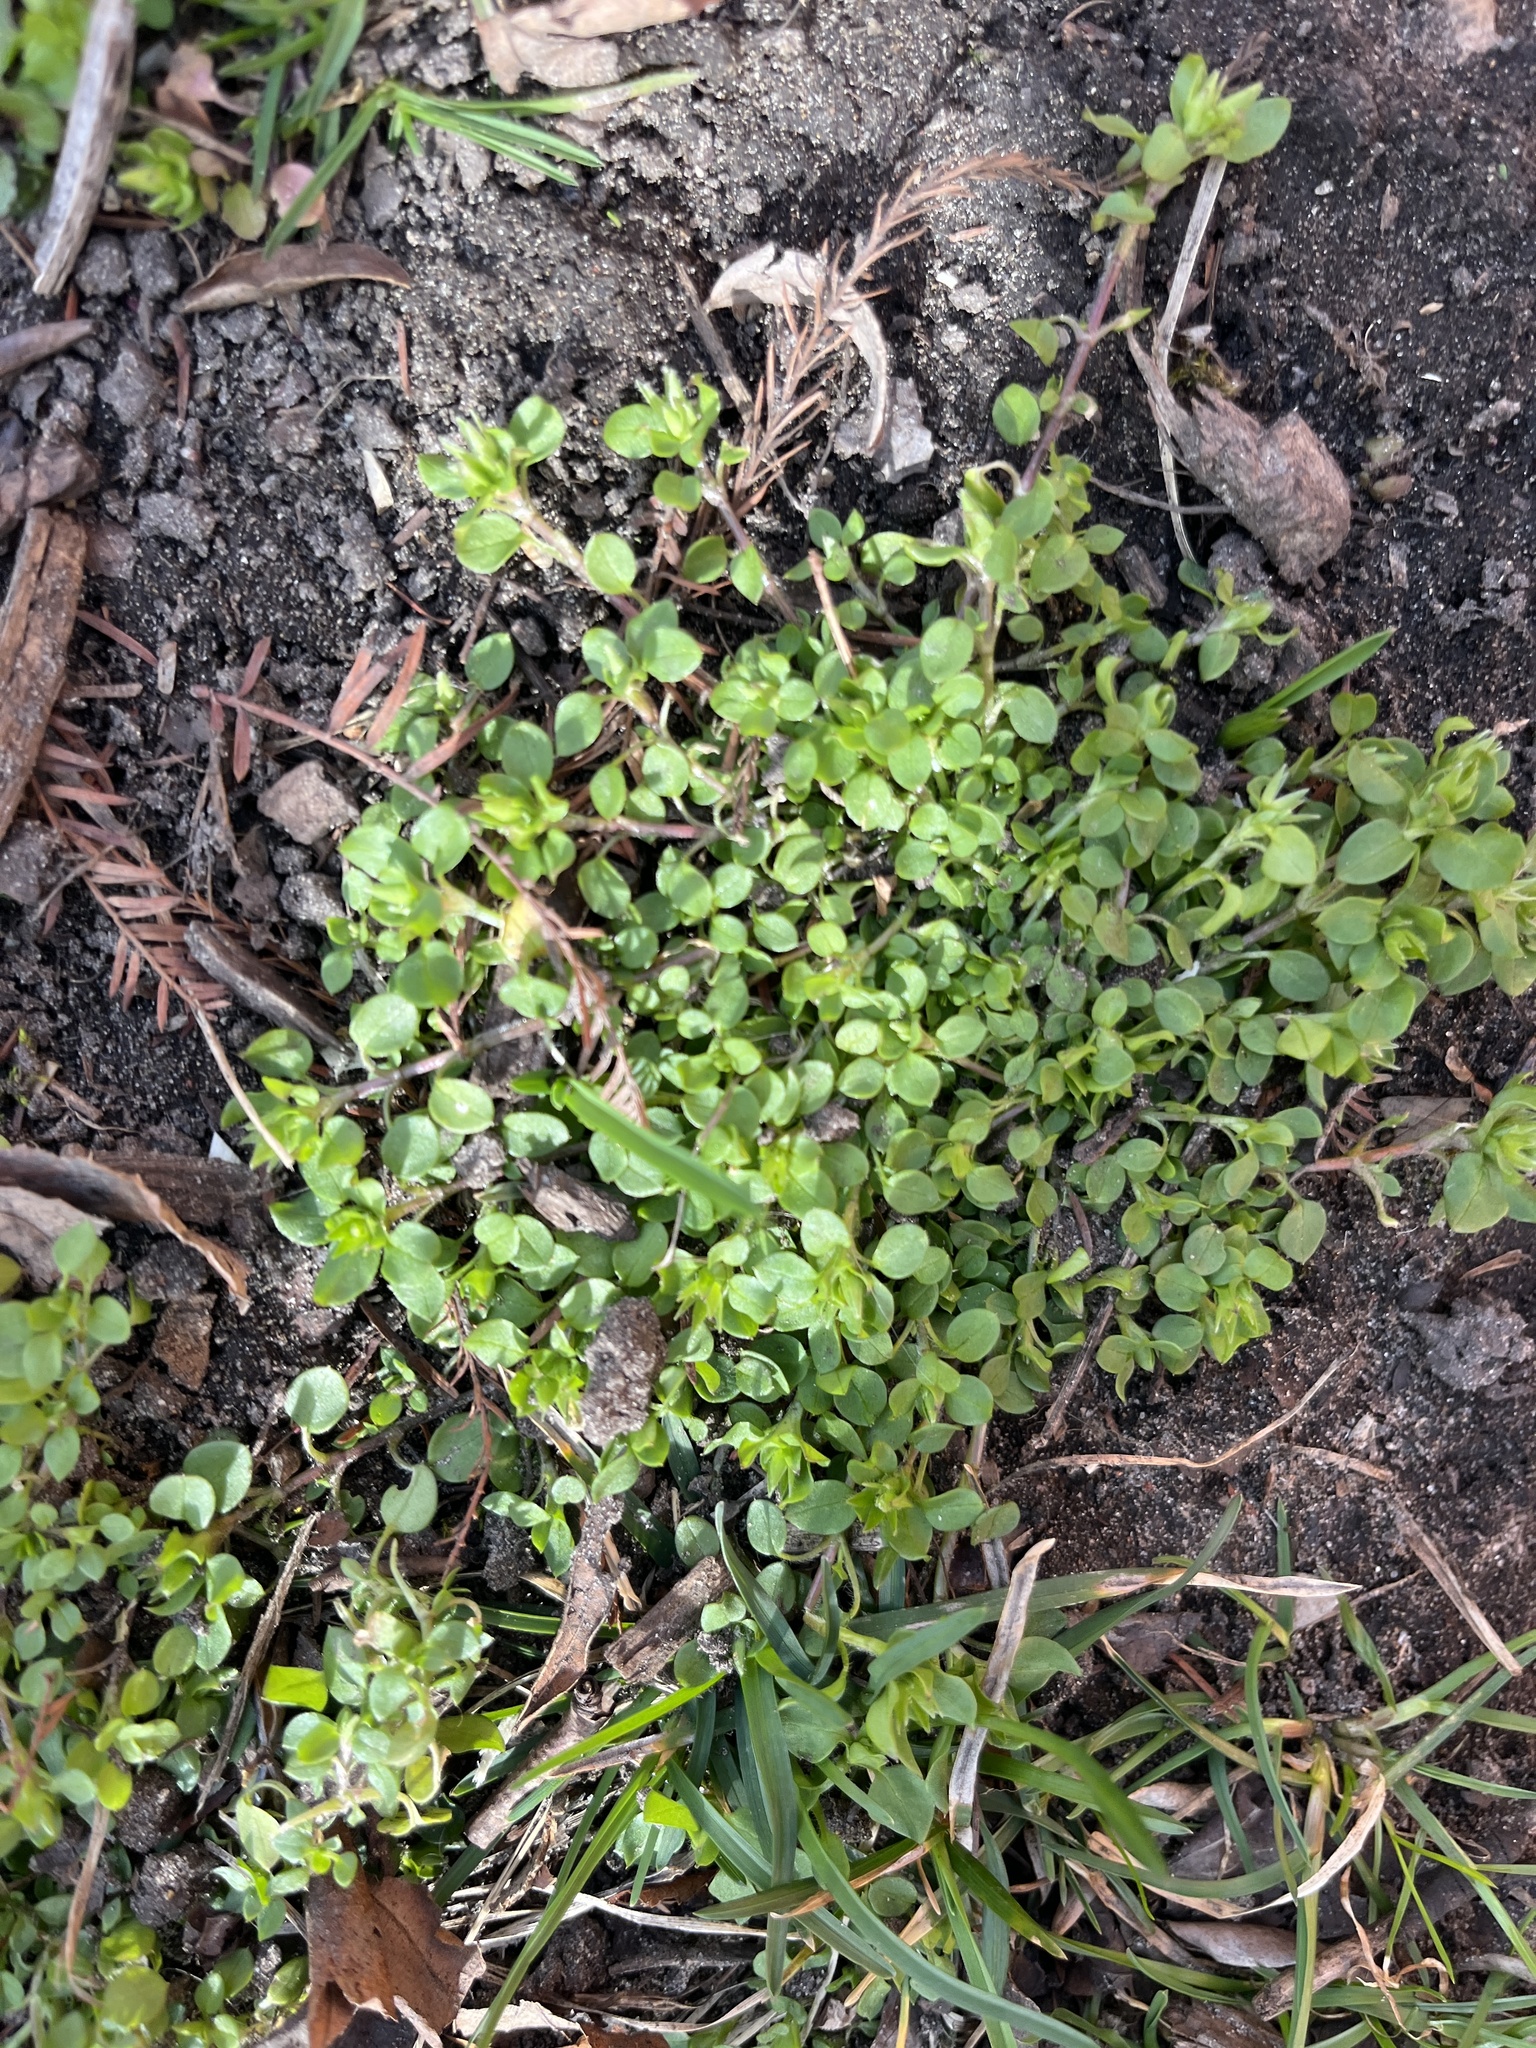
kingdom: Plantae
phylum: Tracheophyta
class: Magnoliopsida
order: Caryophyllales
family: Caryophyllaceae
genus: Stellaria
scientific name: Stellaria media
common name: Common chickweed
